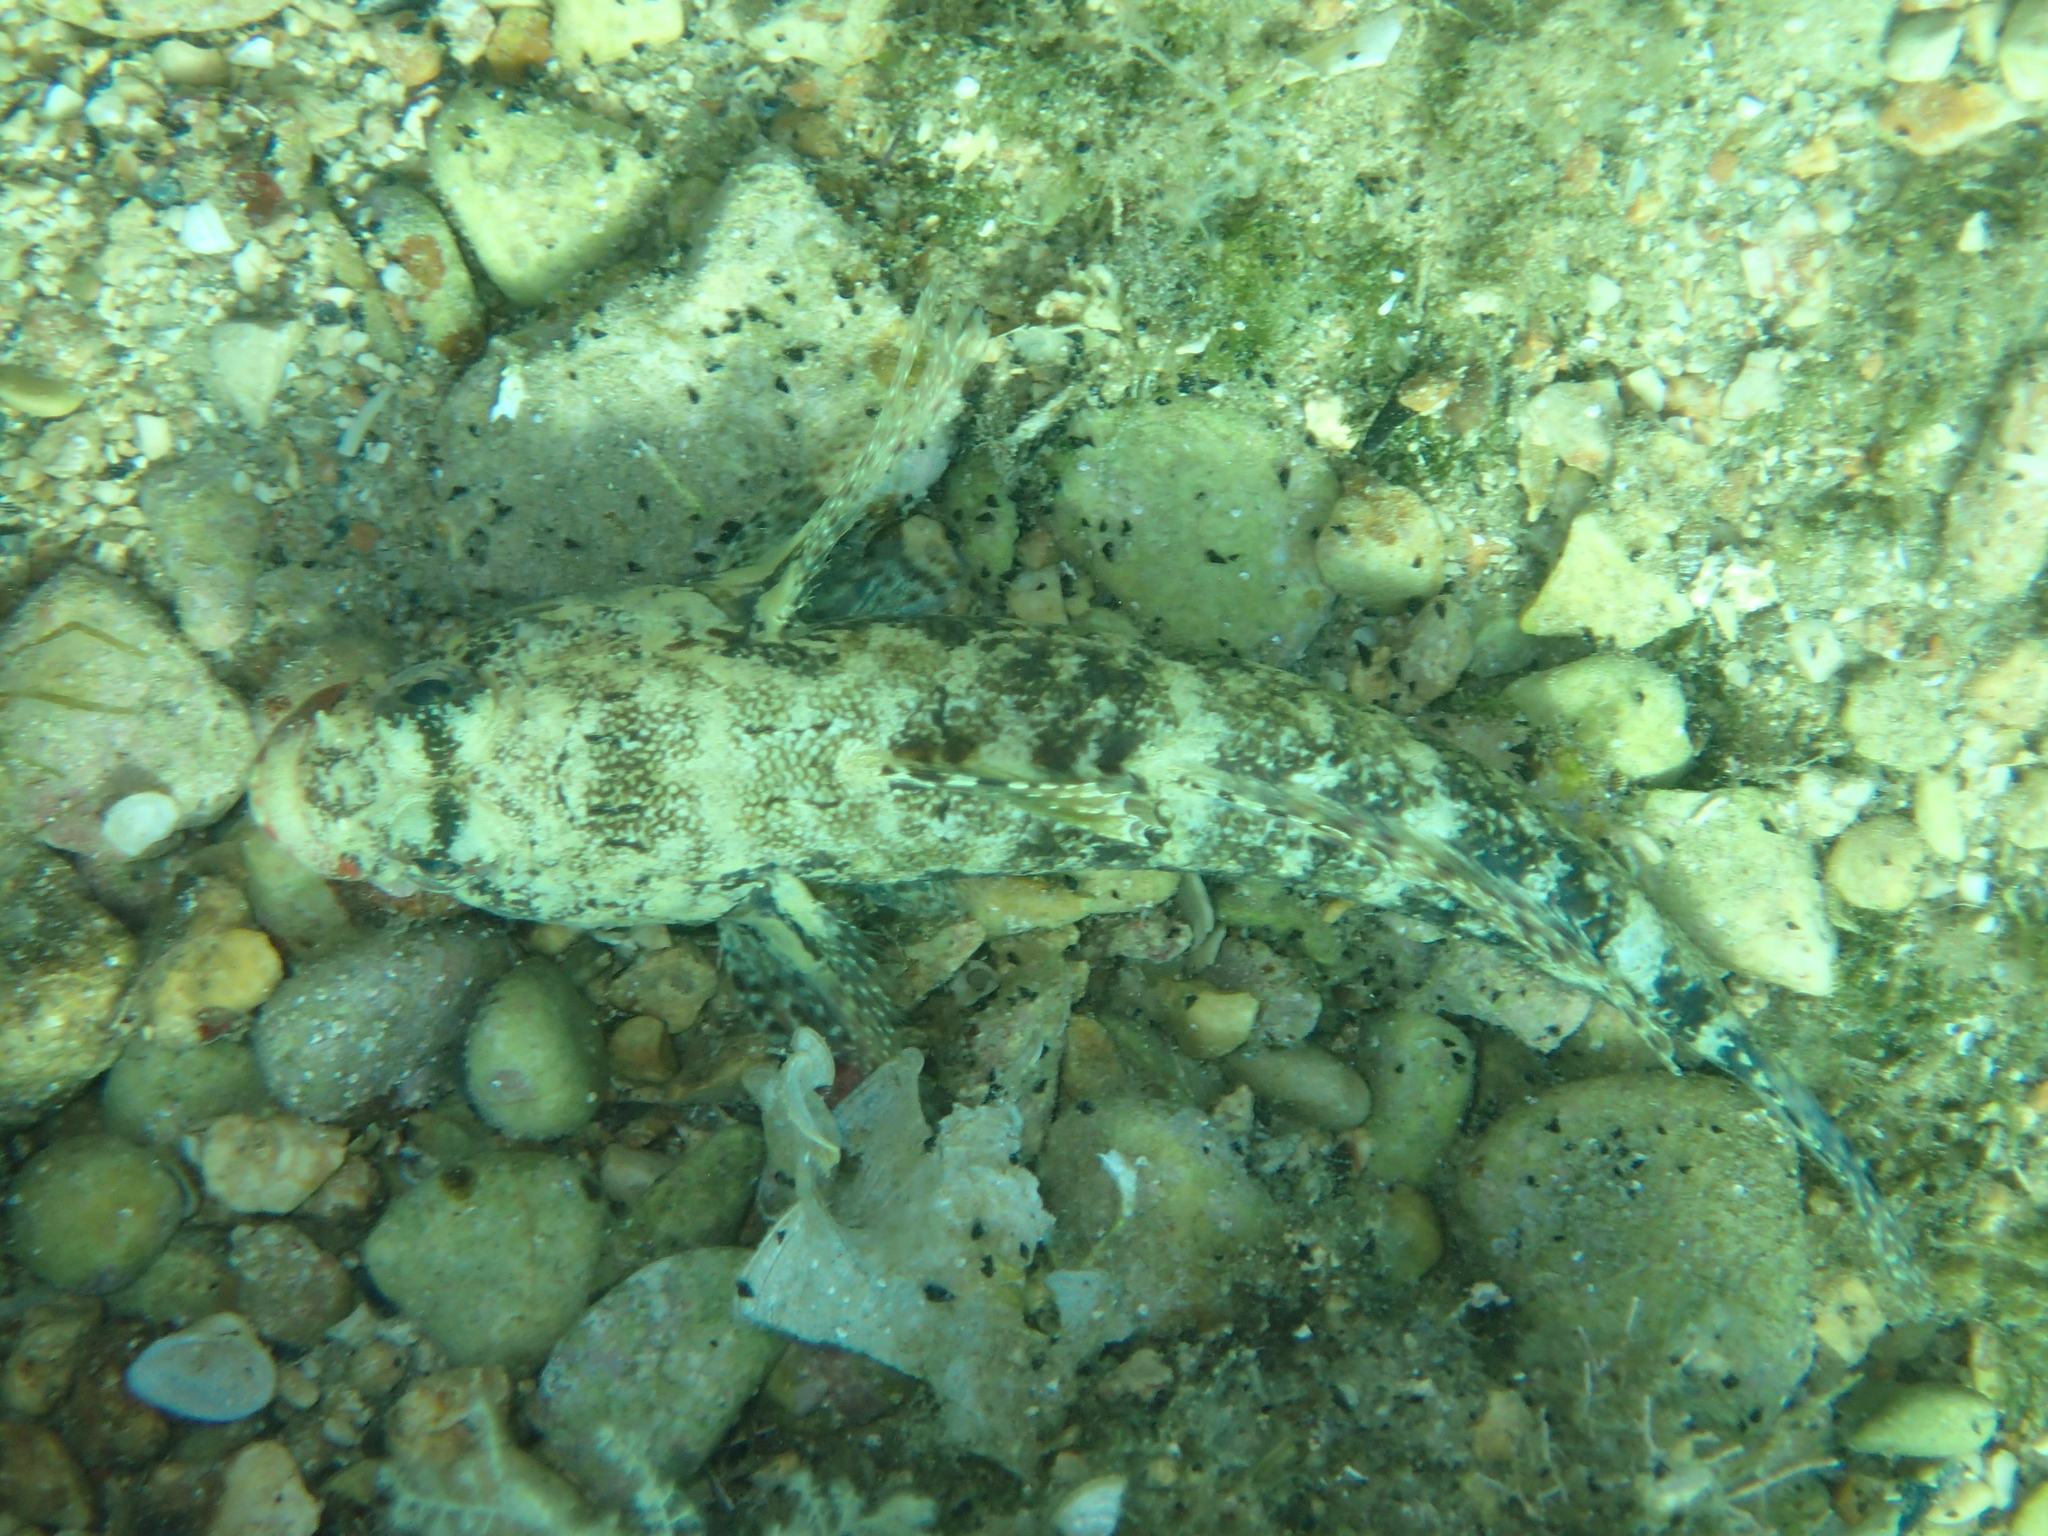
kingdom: Animalia
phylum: Chordata
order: Perciformes
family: Gobiidae
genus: Gobius
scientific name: Gobius cruentatus
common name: Red-mouthed goby
